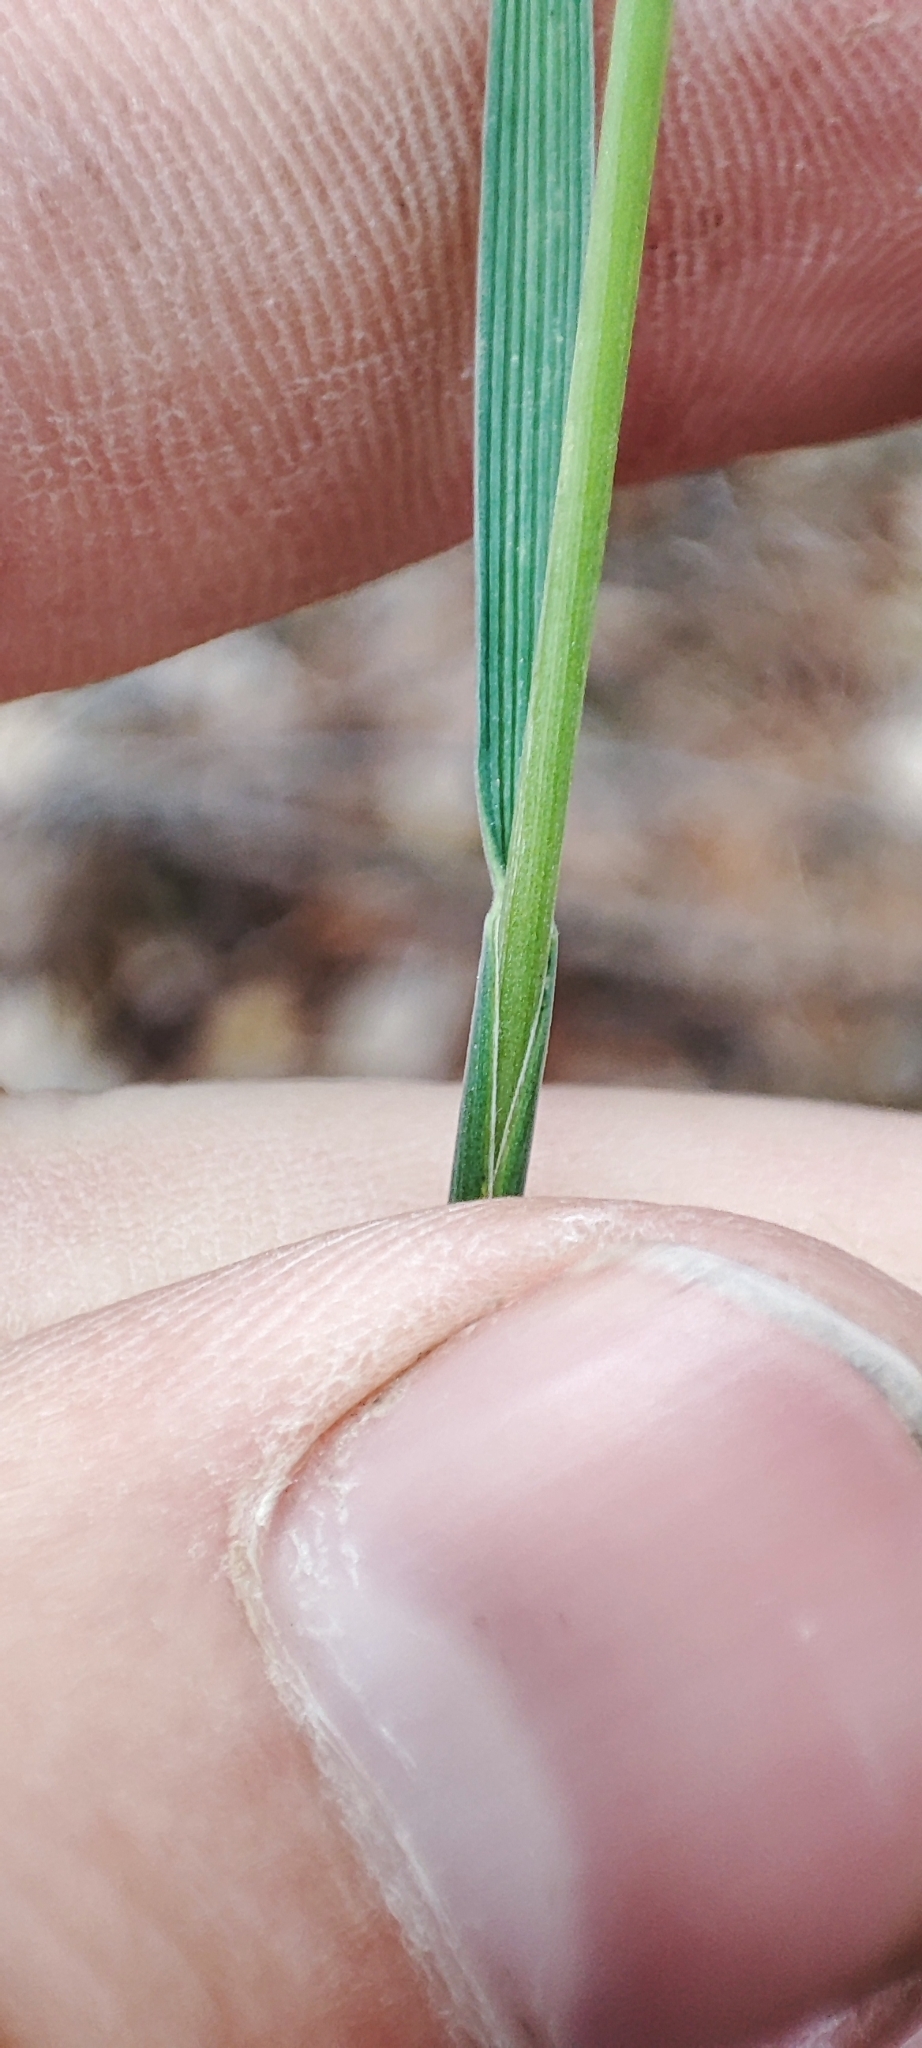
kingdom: Plantae
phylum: Tracheophyta
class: Liliopsida
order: Poales
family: Poaceae
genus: Koeleria
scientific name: Koeleria glauca
